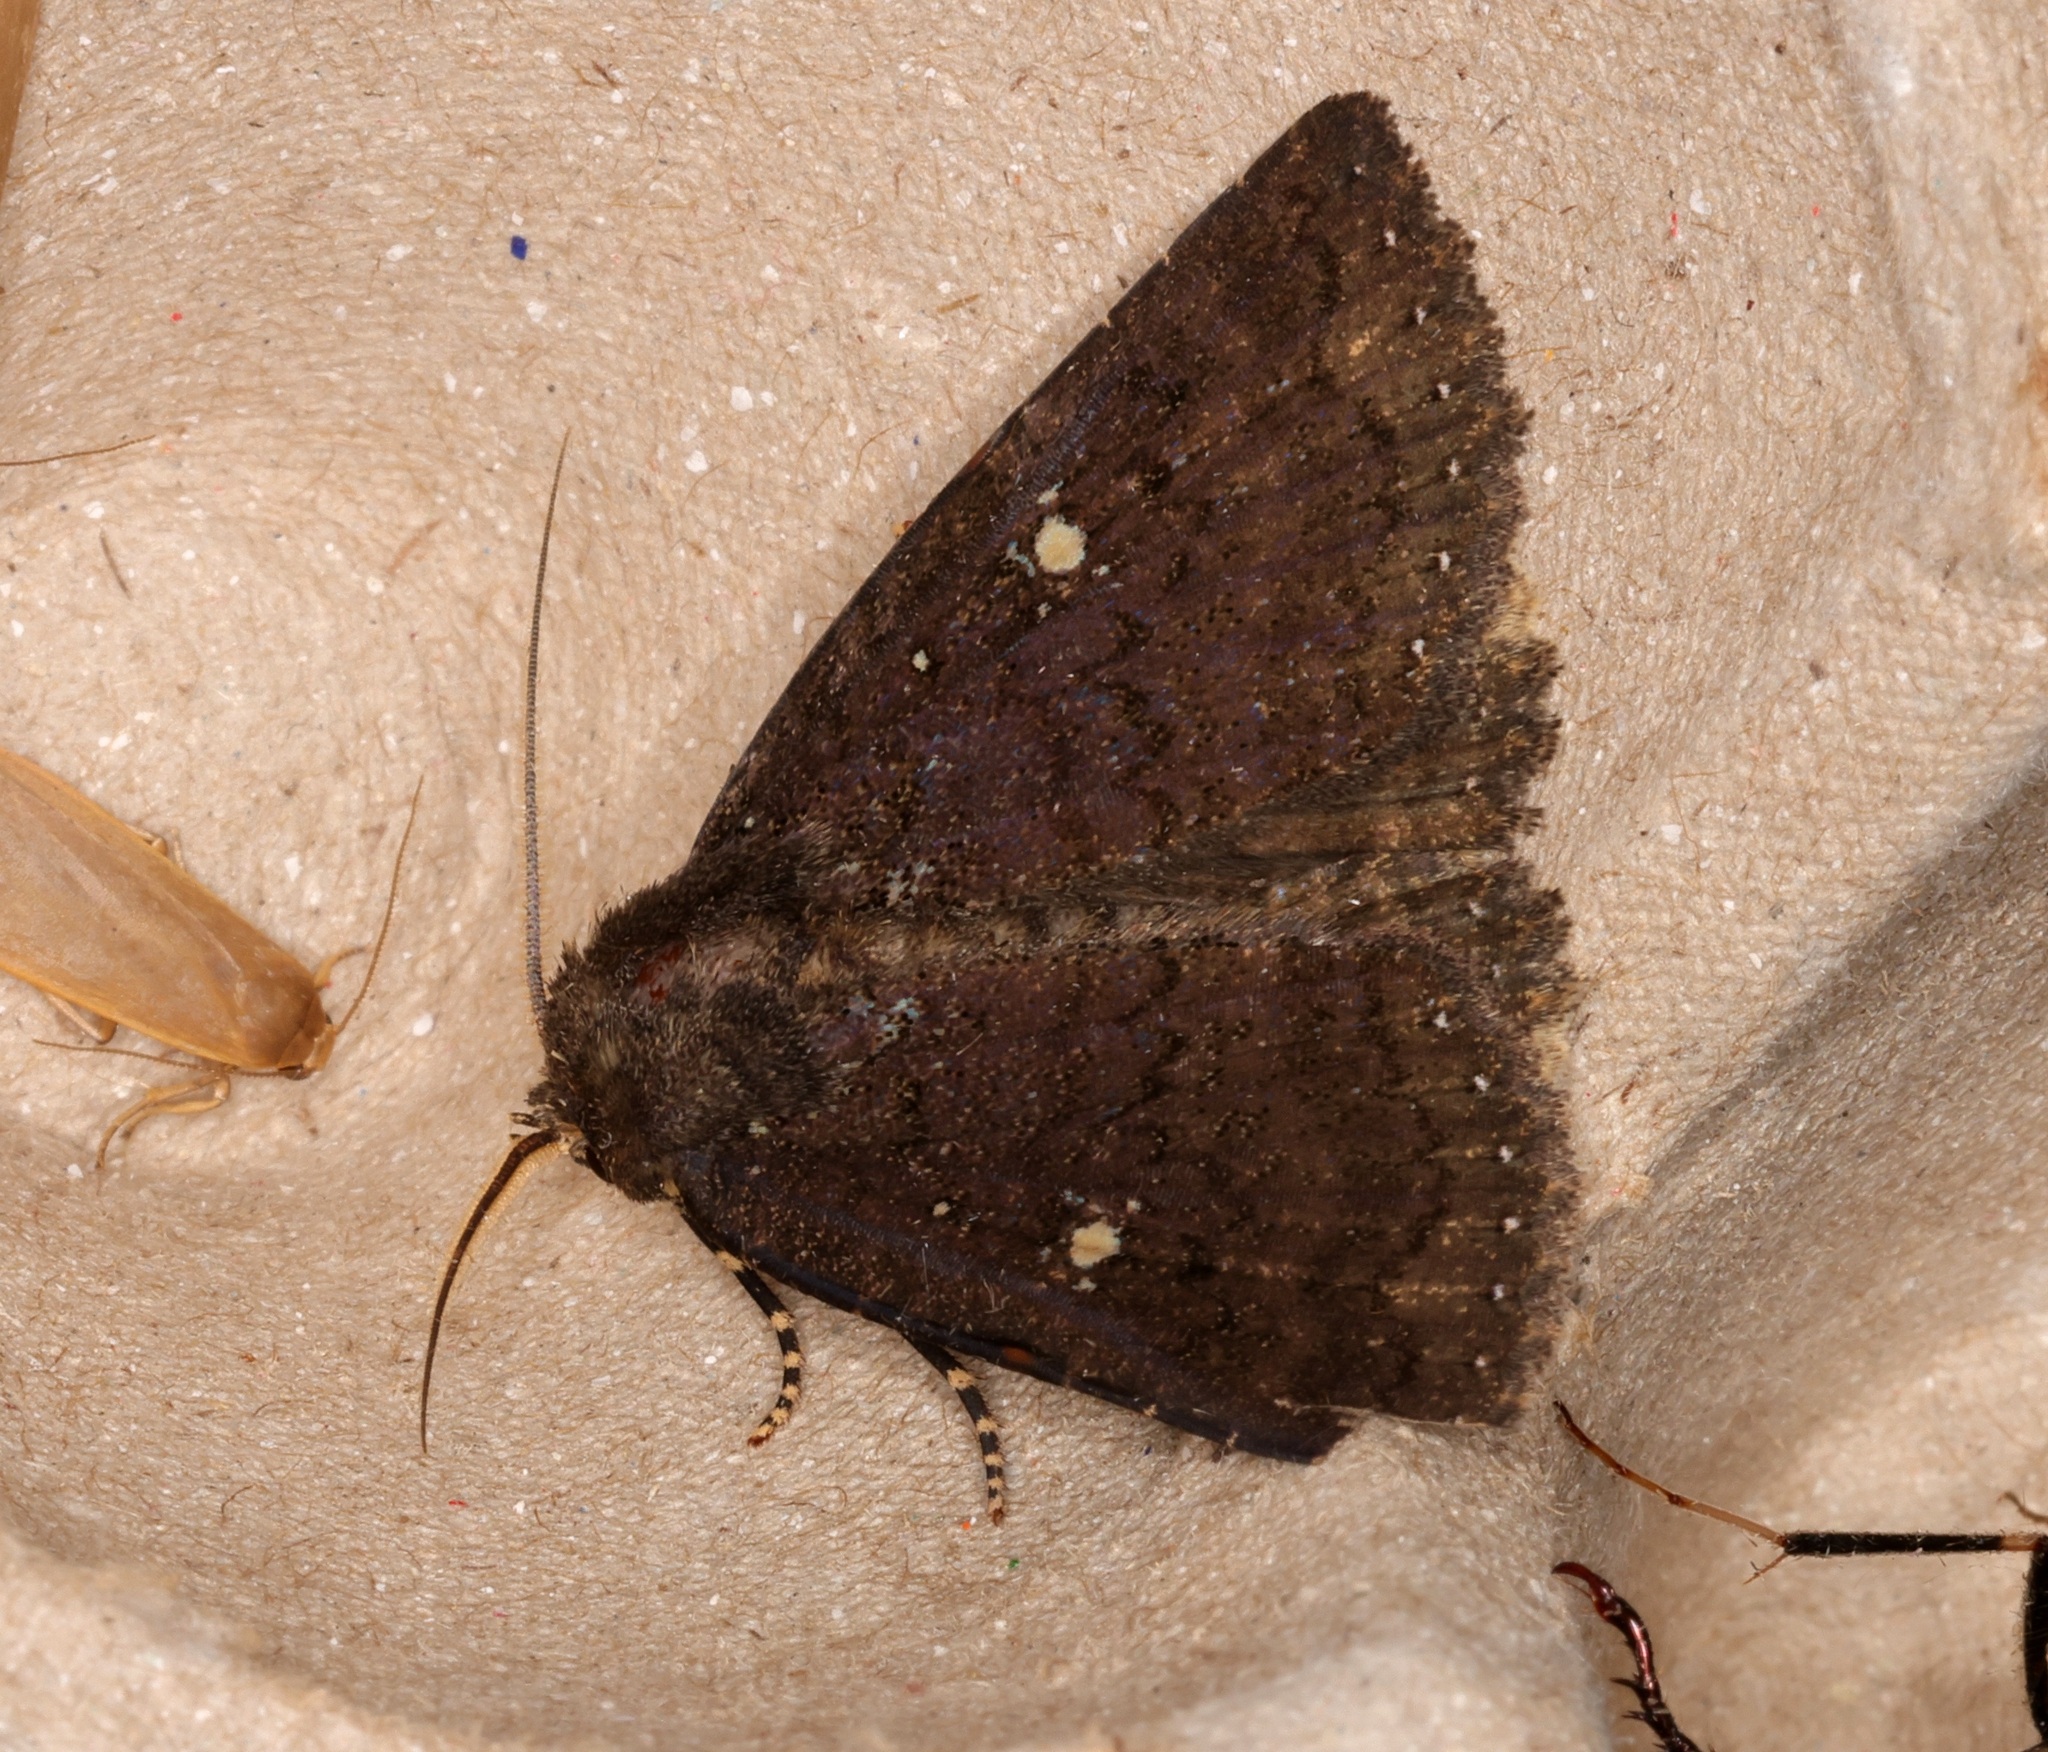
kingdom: Animalia
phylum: Arthropoda
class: Insecta
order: Lepidoptera
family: Erebidae
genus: Hypersypnoides
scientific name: Hypersypnoides submarginata
